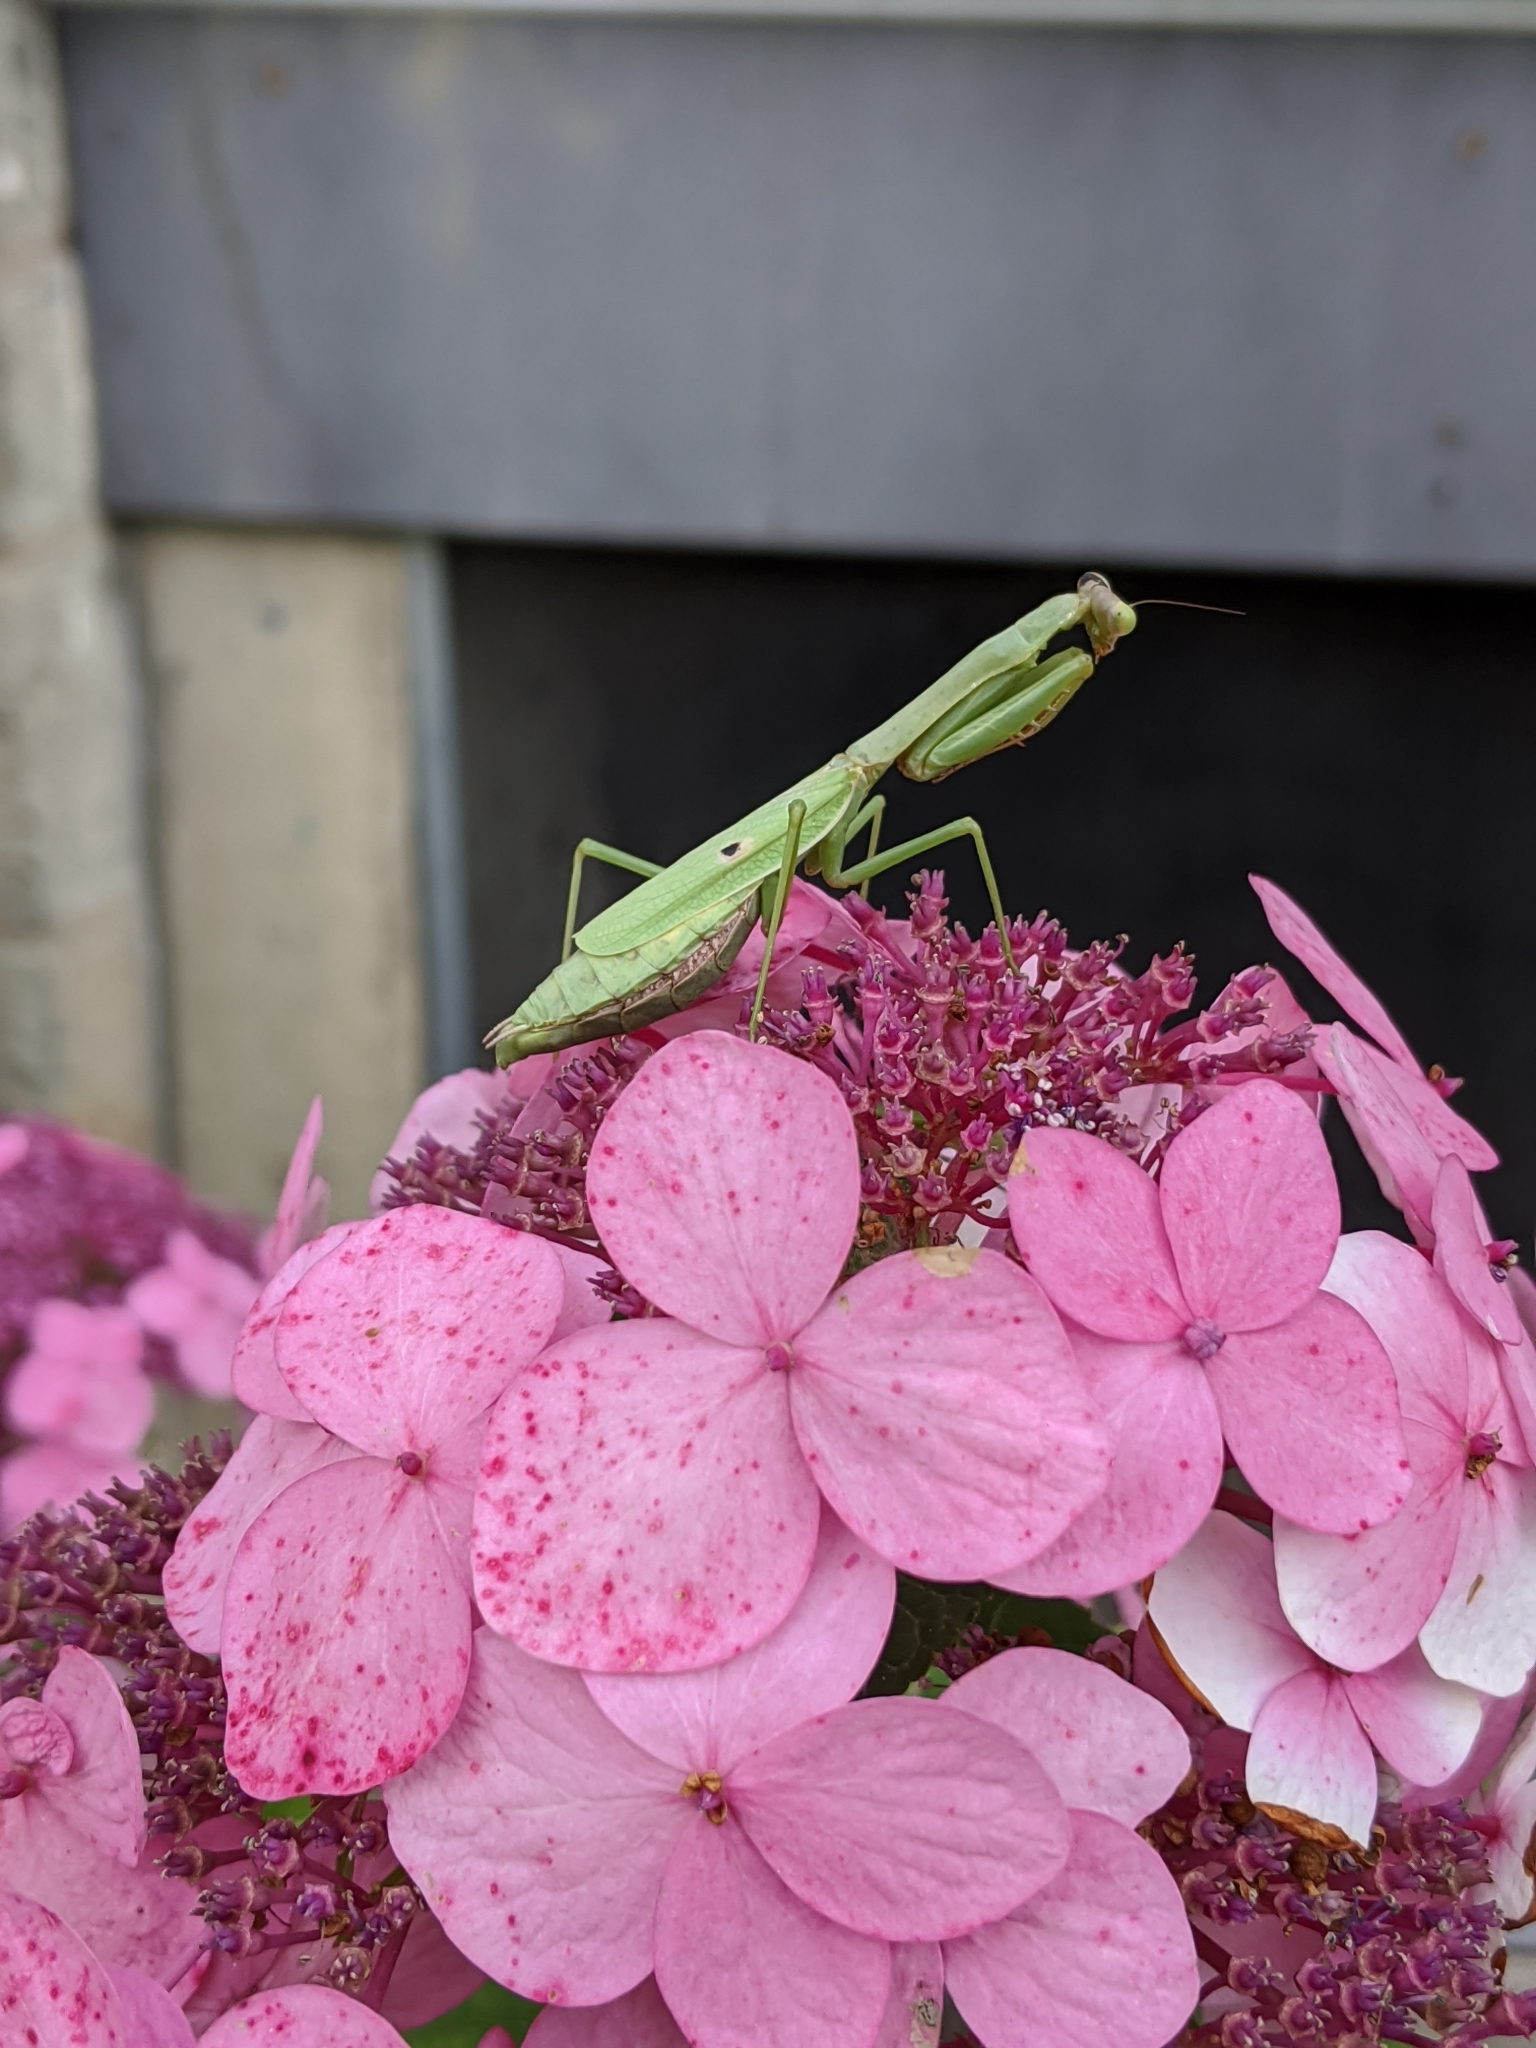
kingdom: Animalia
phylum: Arthropoda
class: Insecta
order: Mantodea
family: Mantidae
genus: Stagmomantis
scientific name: Stagmomantis carolina
